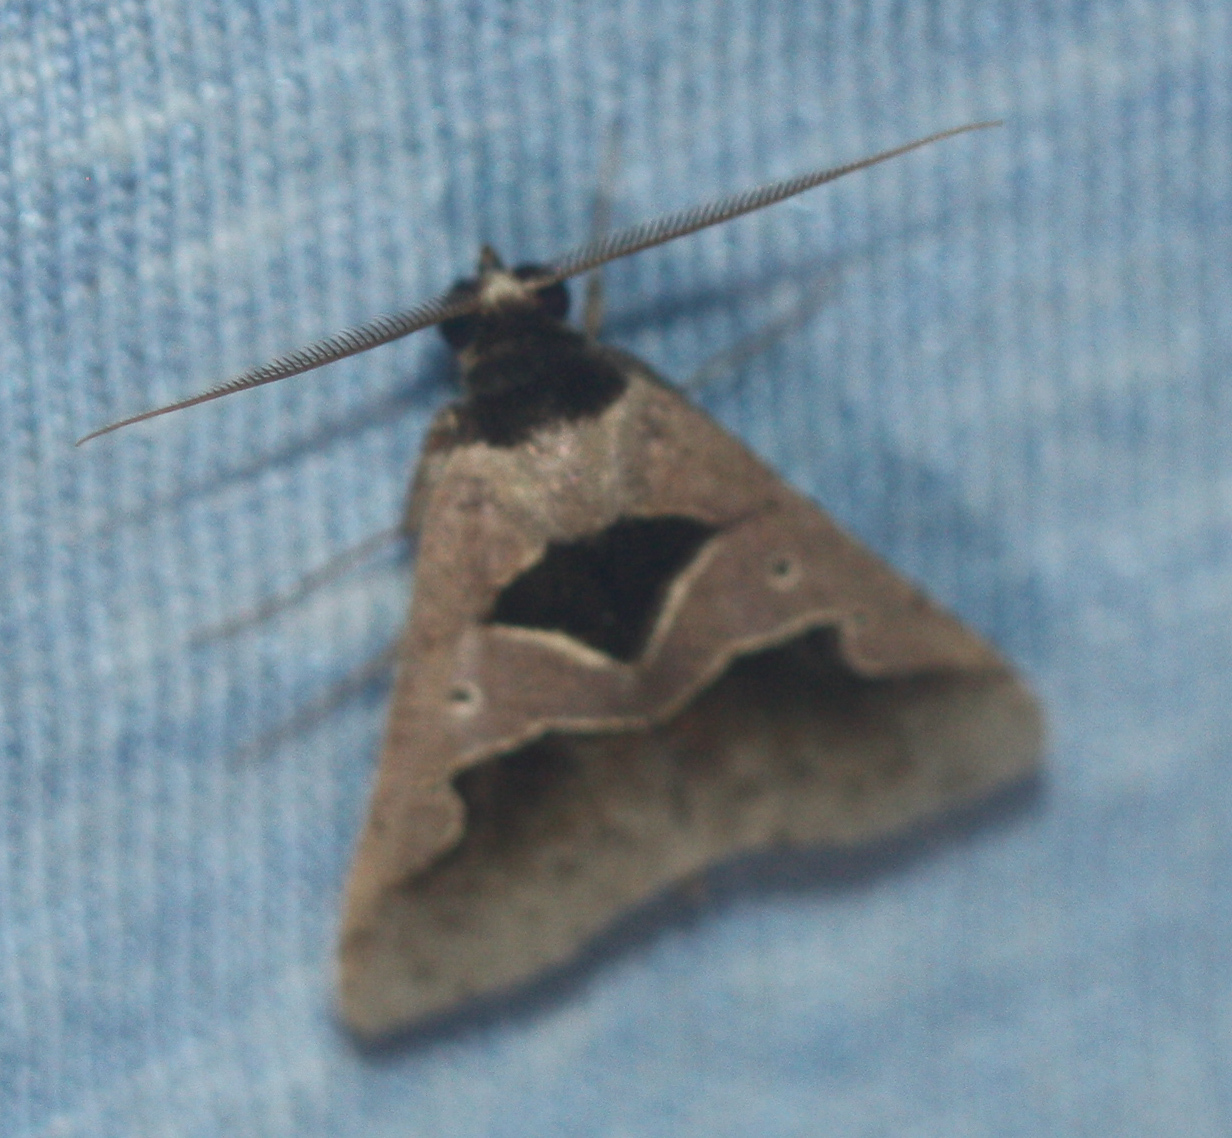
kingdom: Animalia
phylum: Arthropoda
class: Insecta
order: Lepidoptera
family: Erebidae
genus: Anoba
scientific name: Anoba trigonoides
